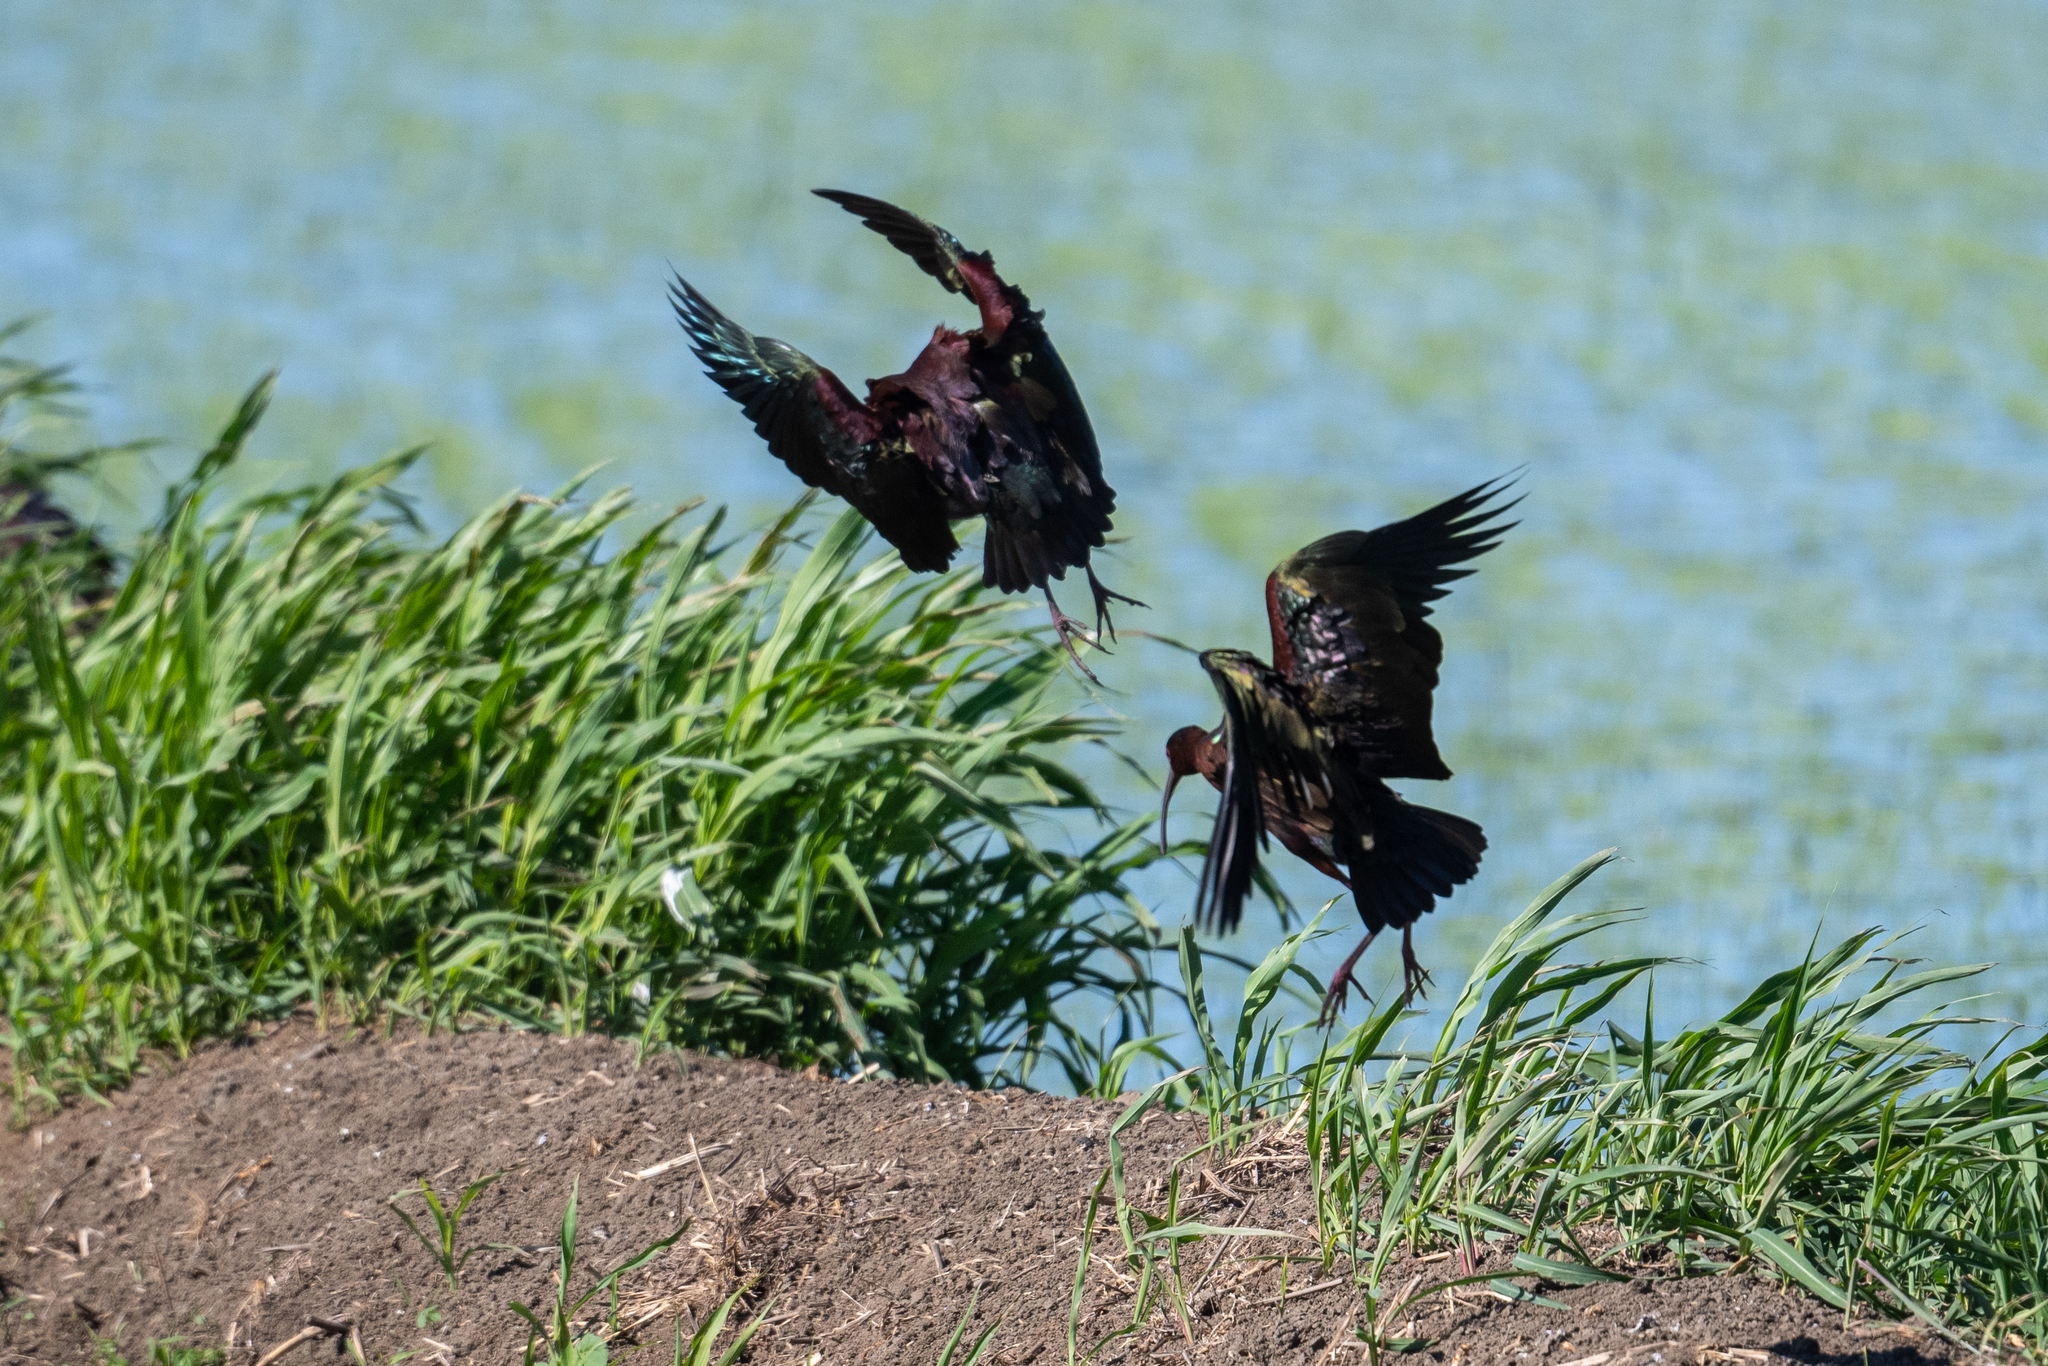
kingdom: Animalia
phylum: Chordata
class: Aves
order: Pelecaniformes
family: Threskiornithidae
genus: Plegadis
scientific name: Plegadis chihi
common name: White-faced ibis
